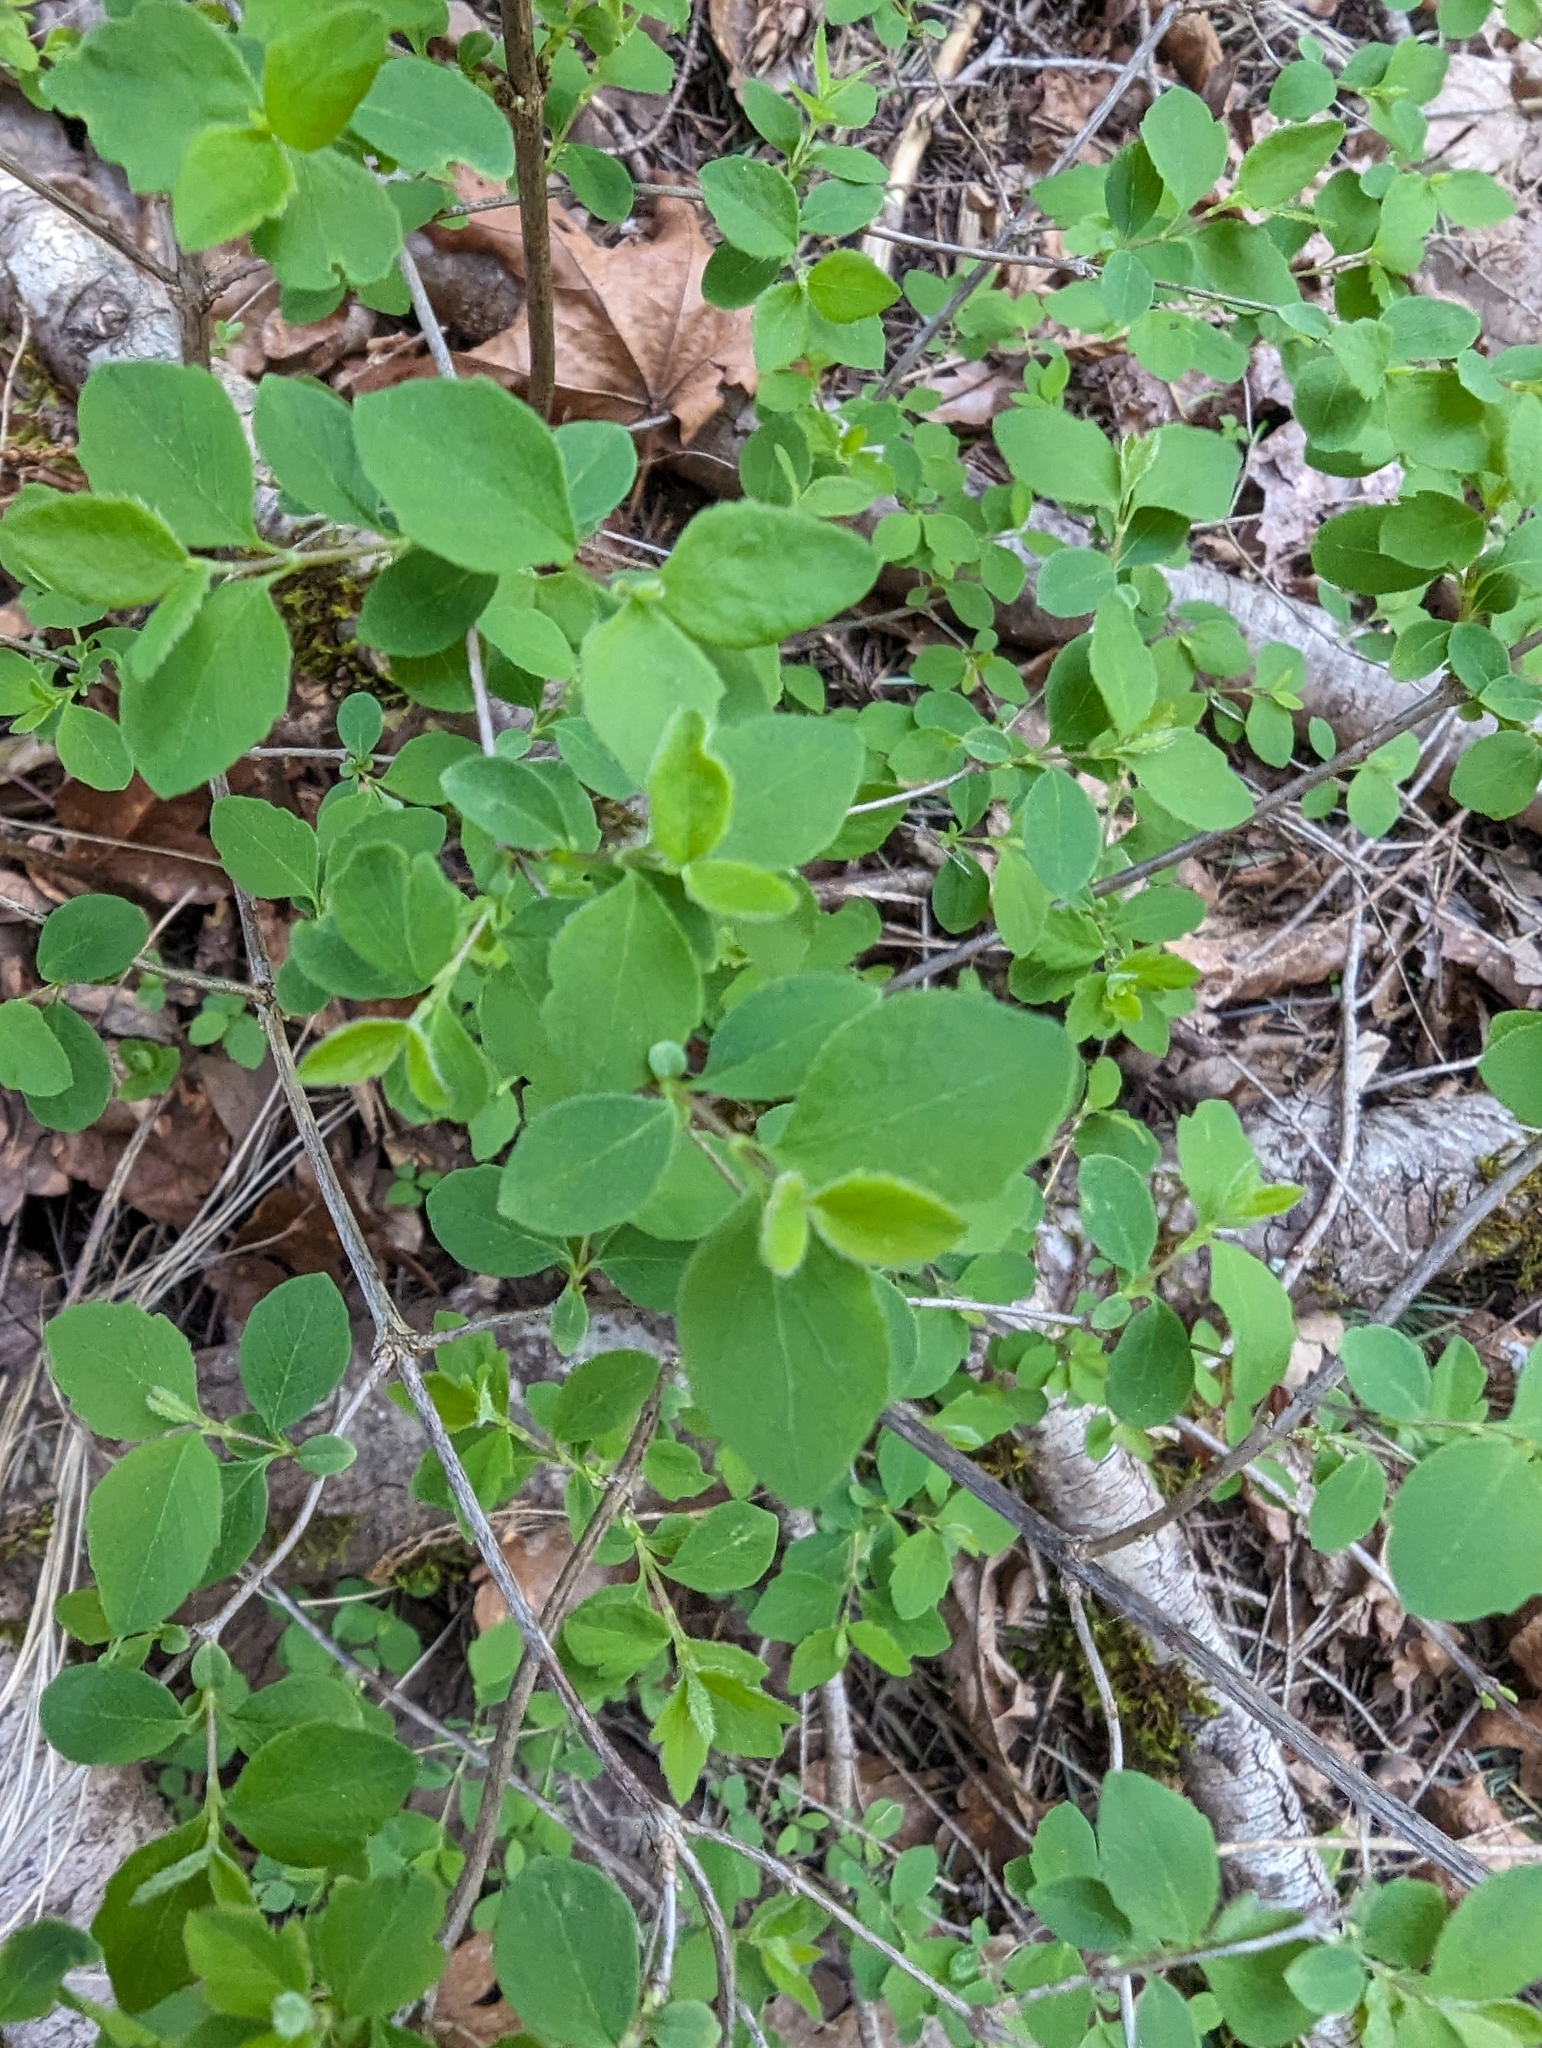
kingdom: Plantae
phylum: Tracheophyta
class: Magnoliopsida
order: Dipsacales
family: Caprifoliaceae
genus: Symphoricarpos
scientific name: Symphoricarpos albus
